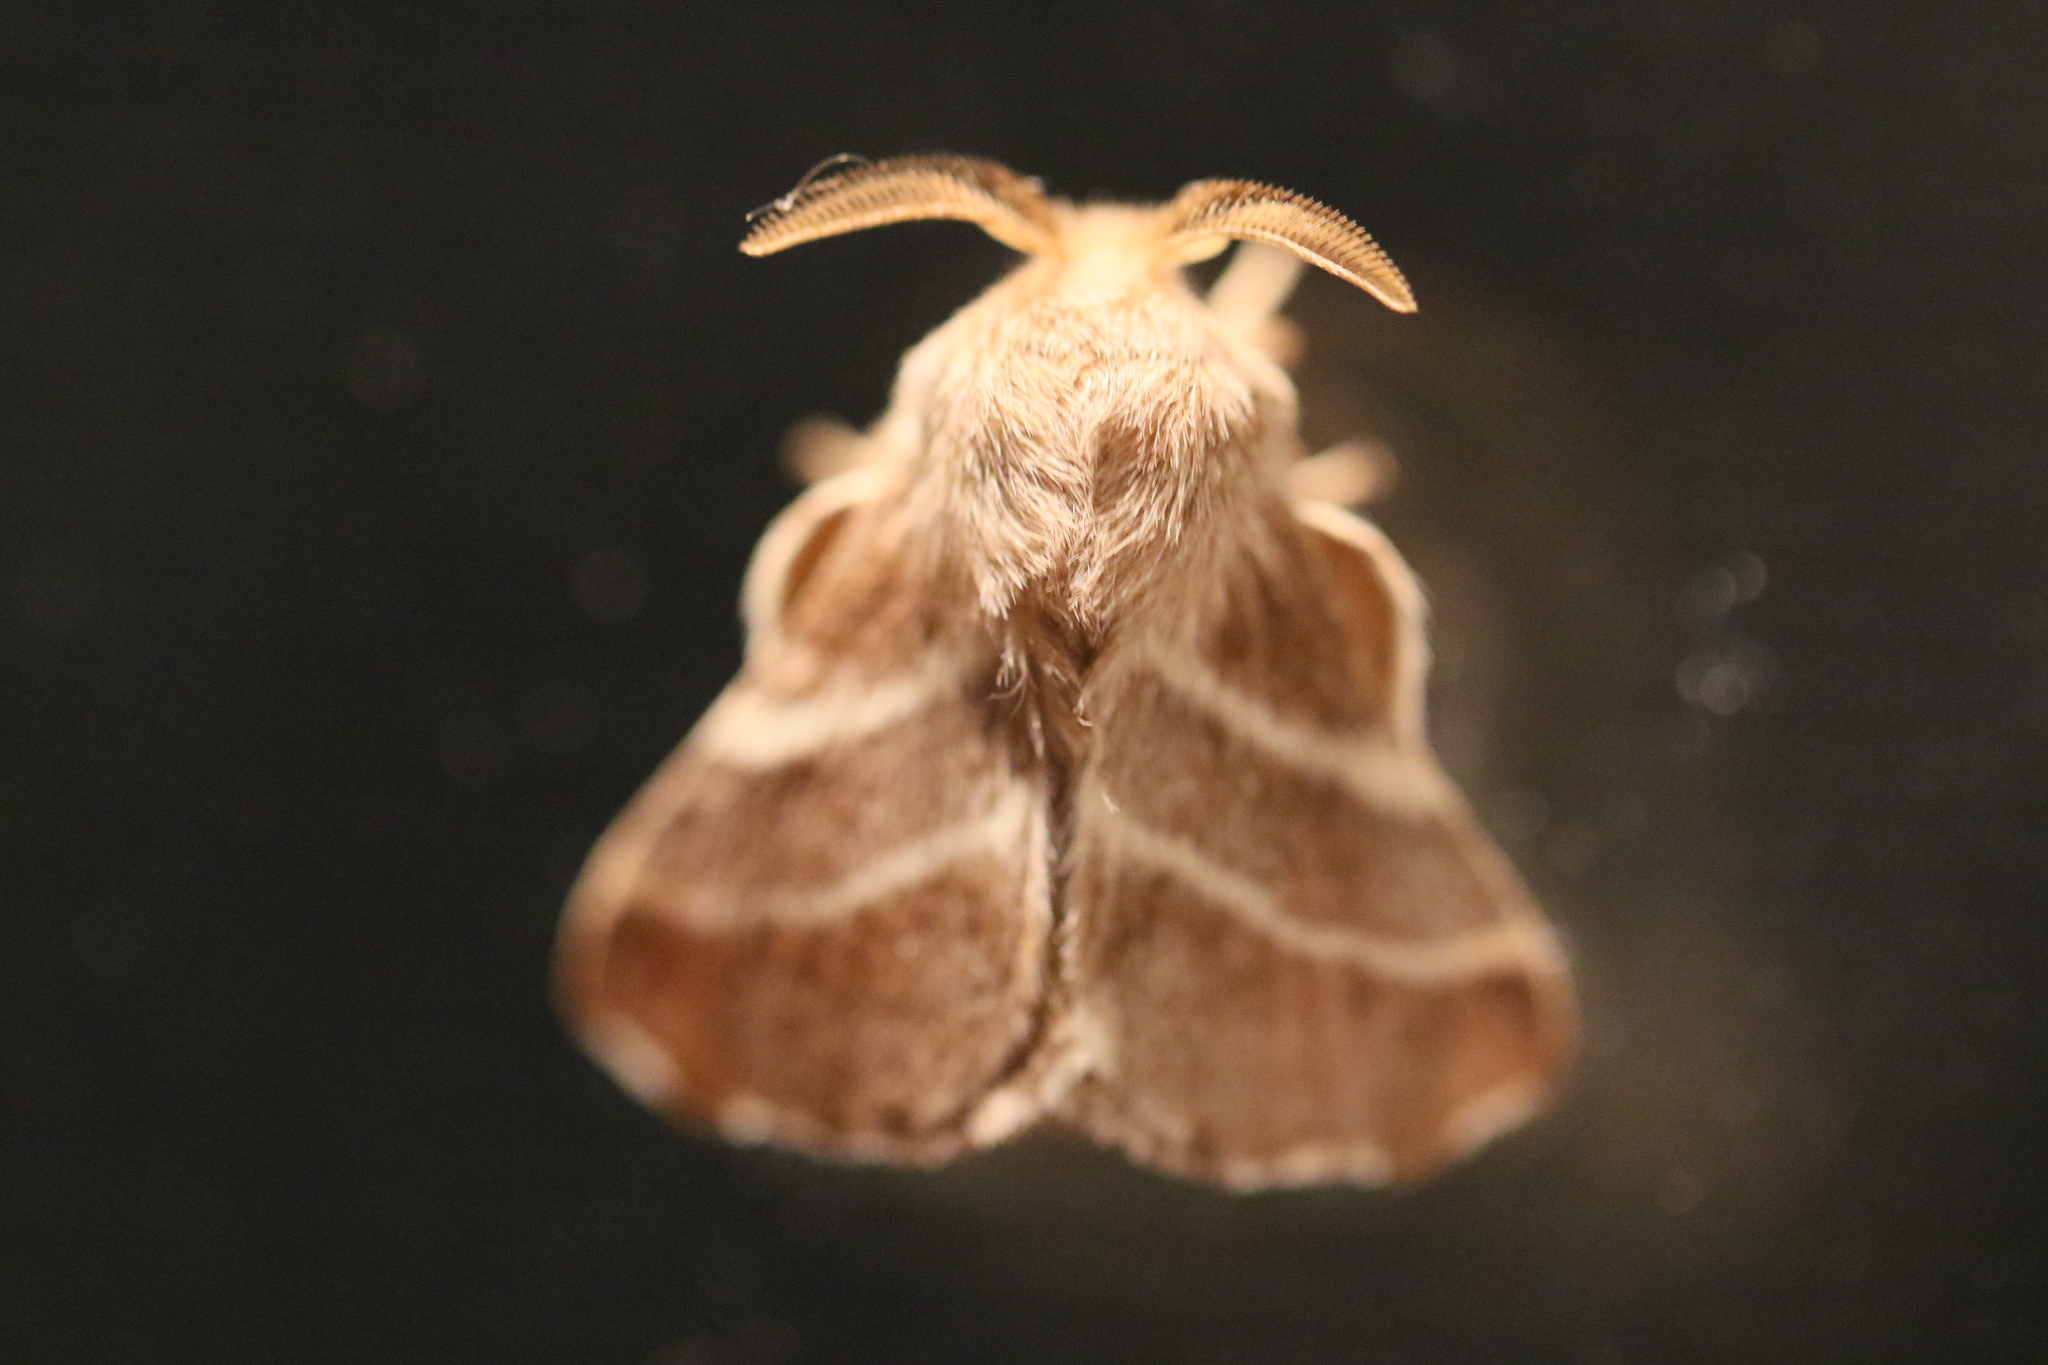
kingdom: Animalia
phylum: Arthropoda
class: Insecta
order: Lepidoptera
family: Lasiocampidae
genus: Malacosoma
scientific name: Malacosoma americana
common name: Eastern tent caterpillar moth
